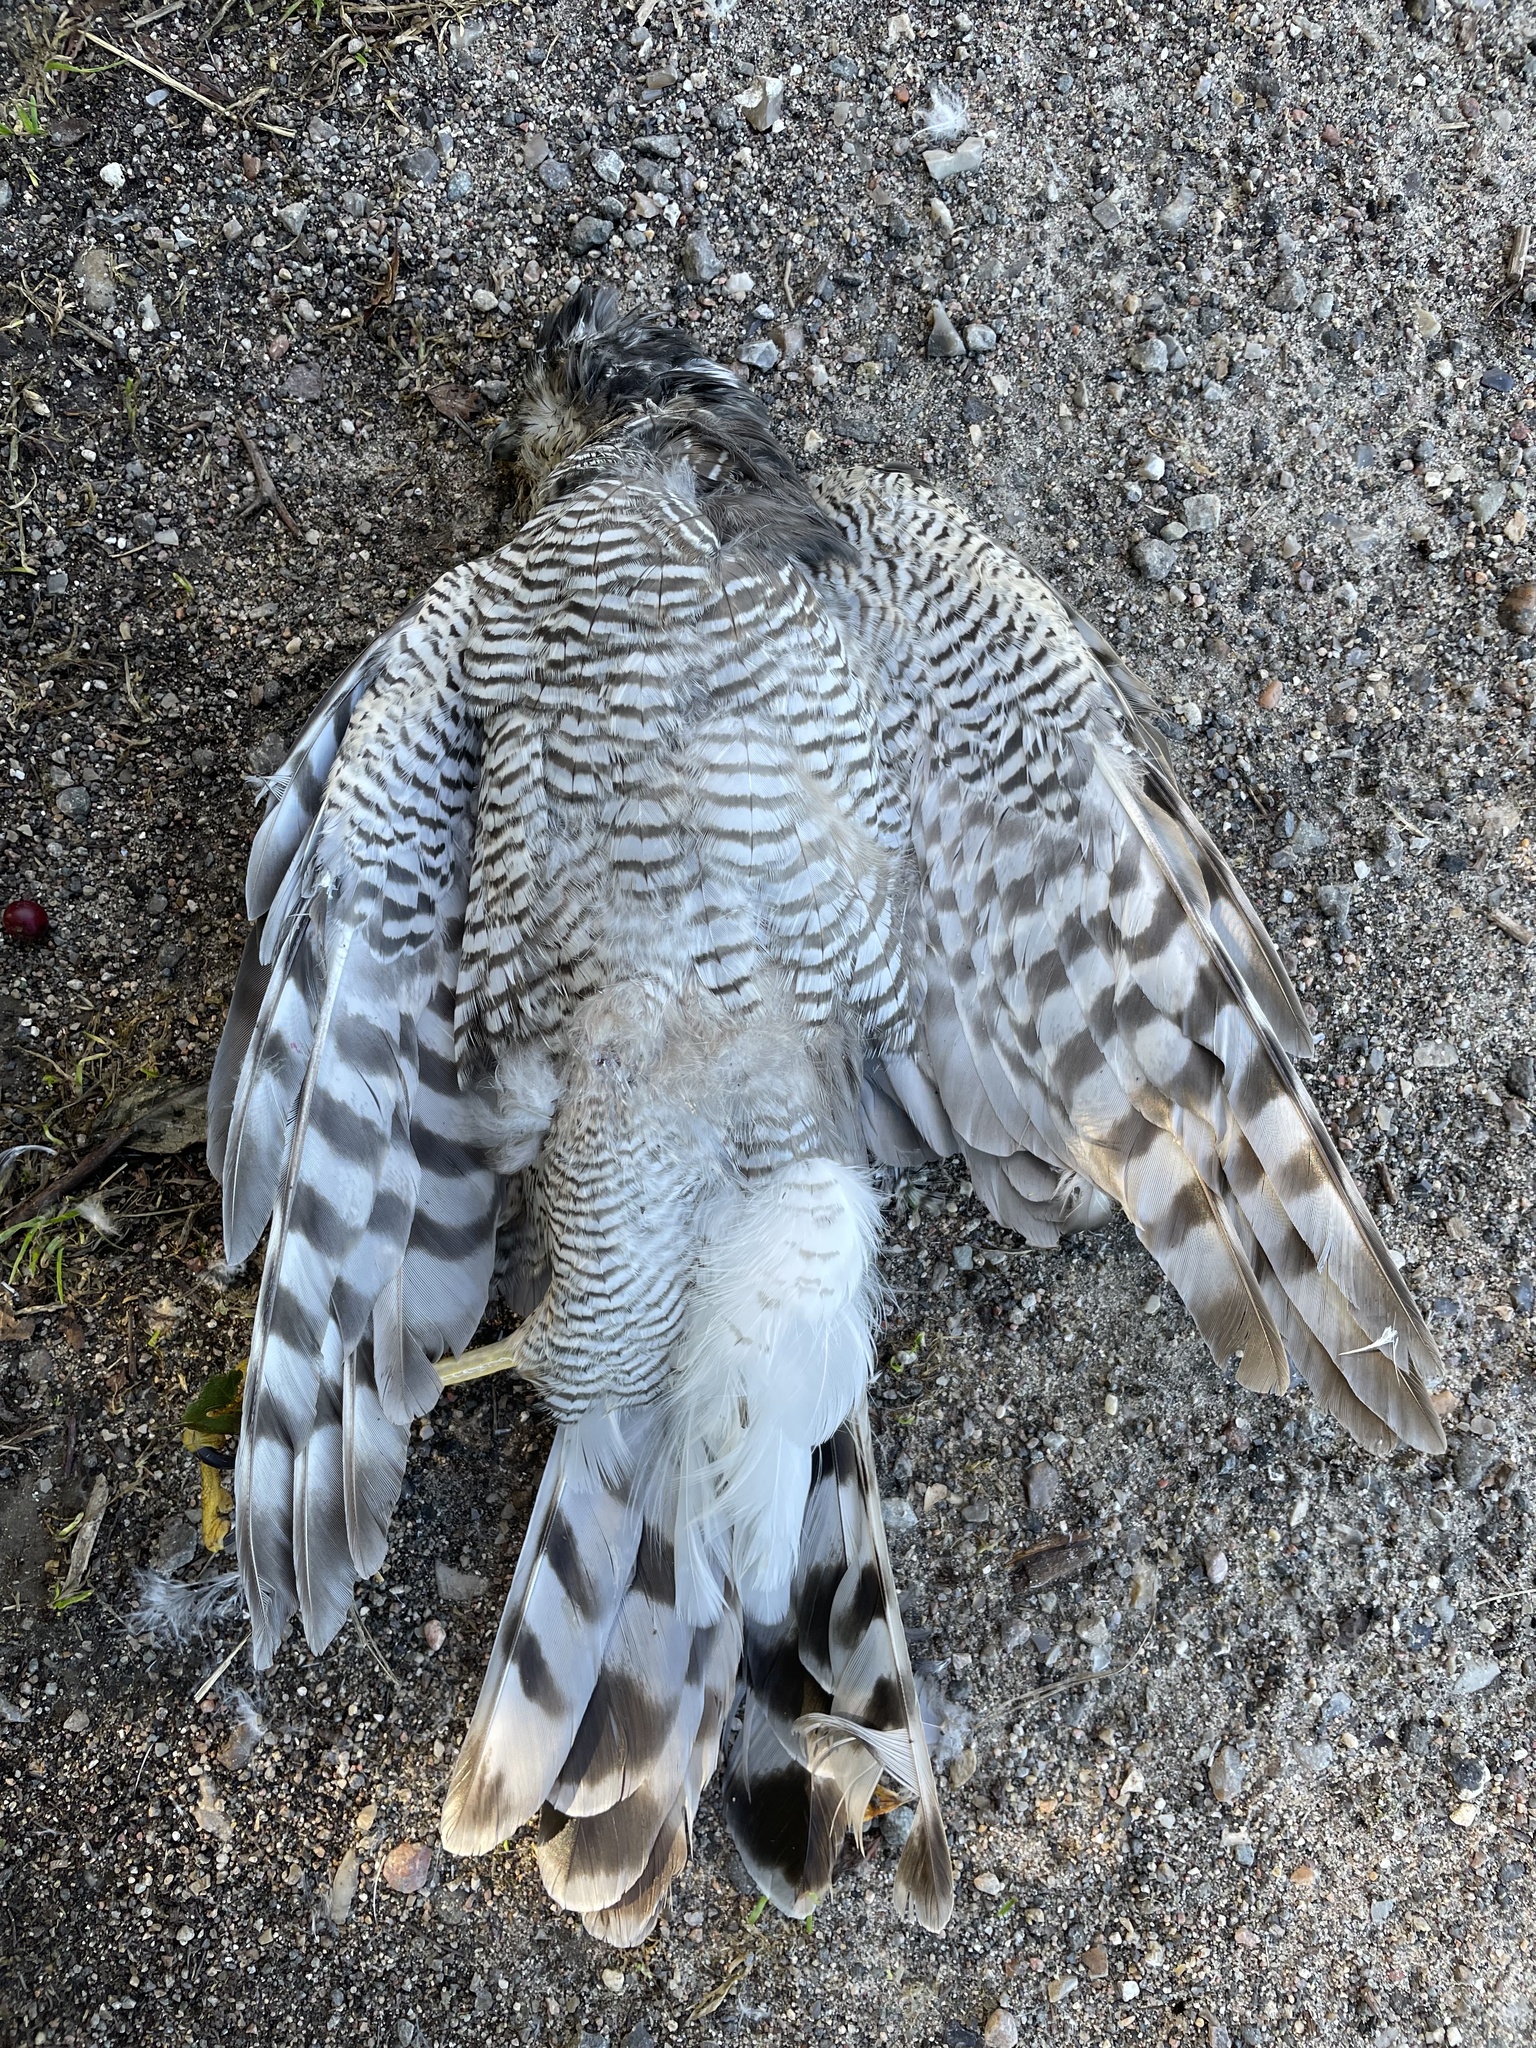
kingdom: Animalia
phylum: Chordata
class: Aves
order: Accipitriformes
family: Accipitridae
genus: Accipiter
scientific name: Accipiter nisus
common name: Eurasian sparrowhawk
